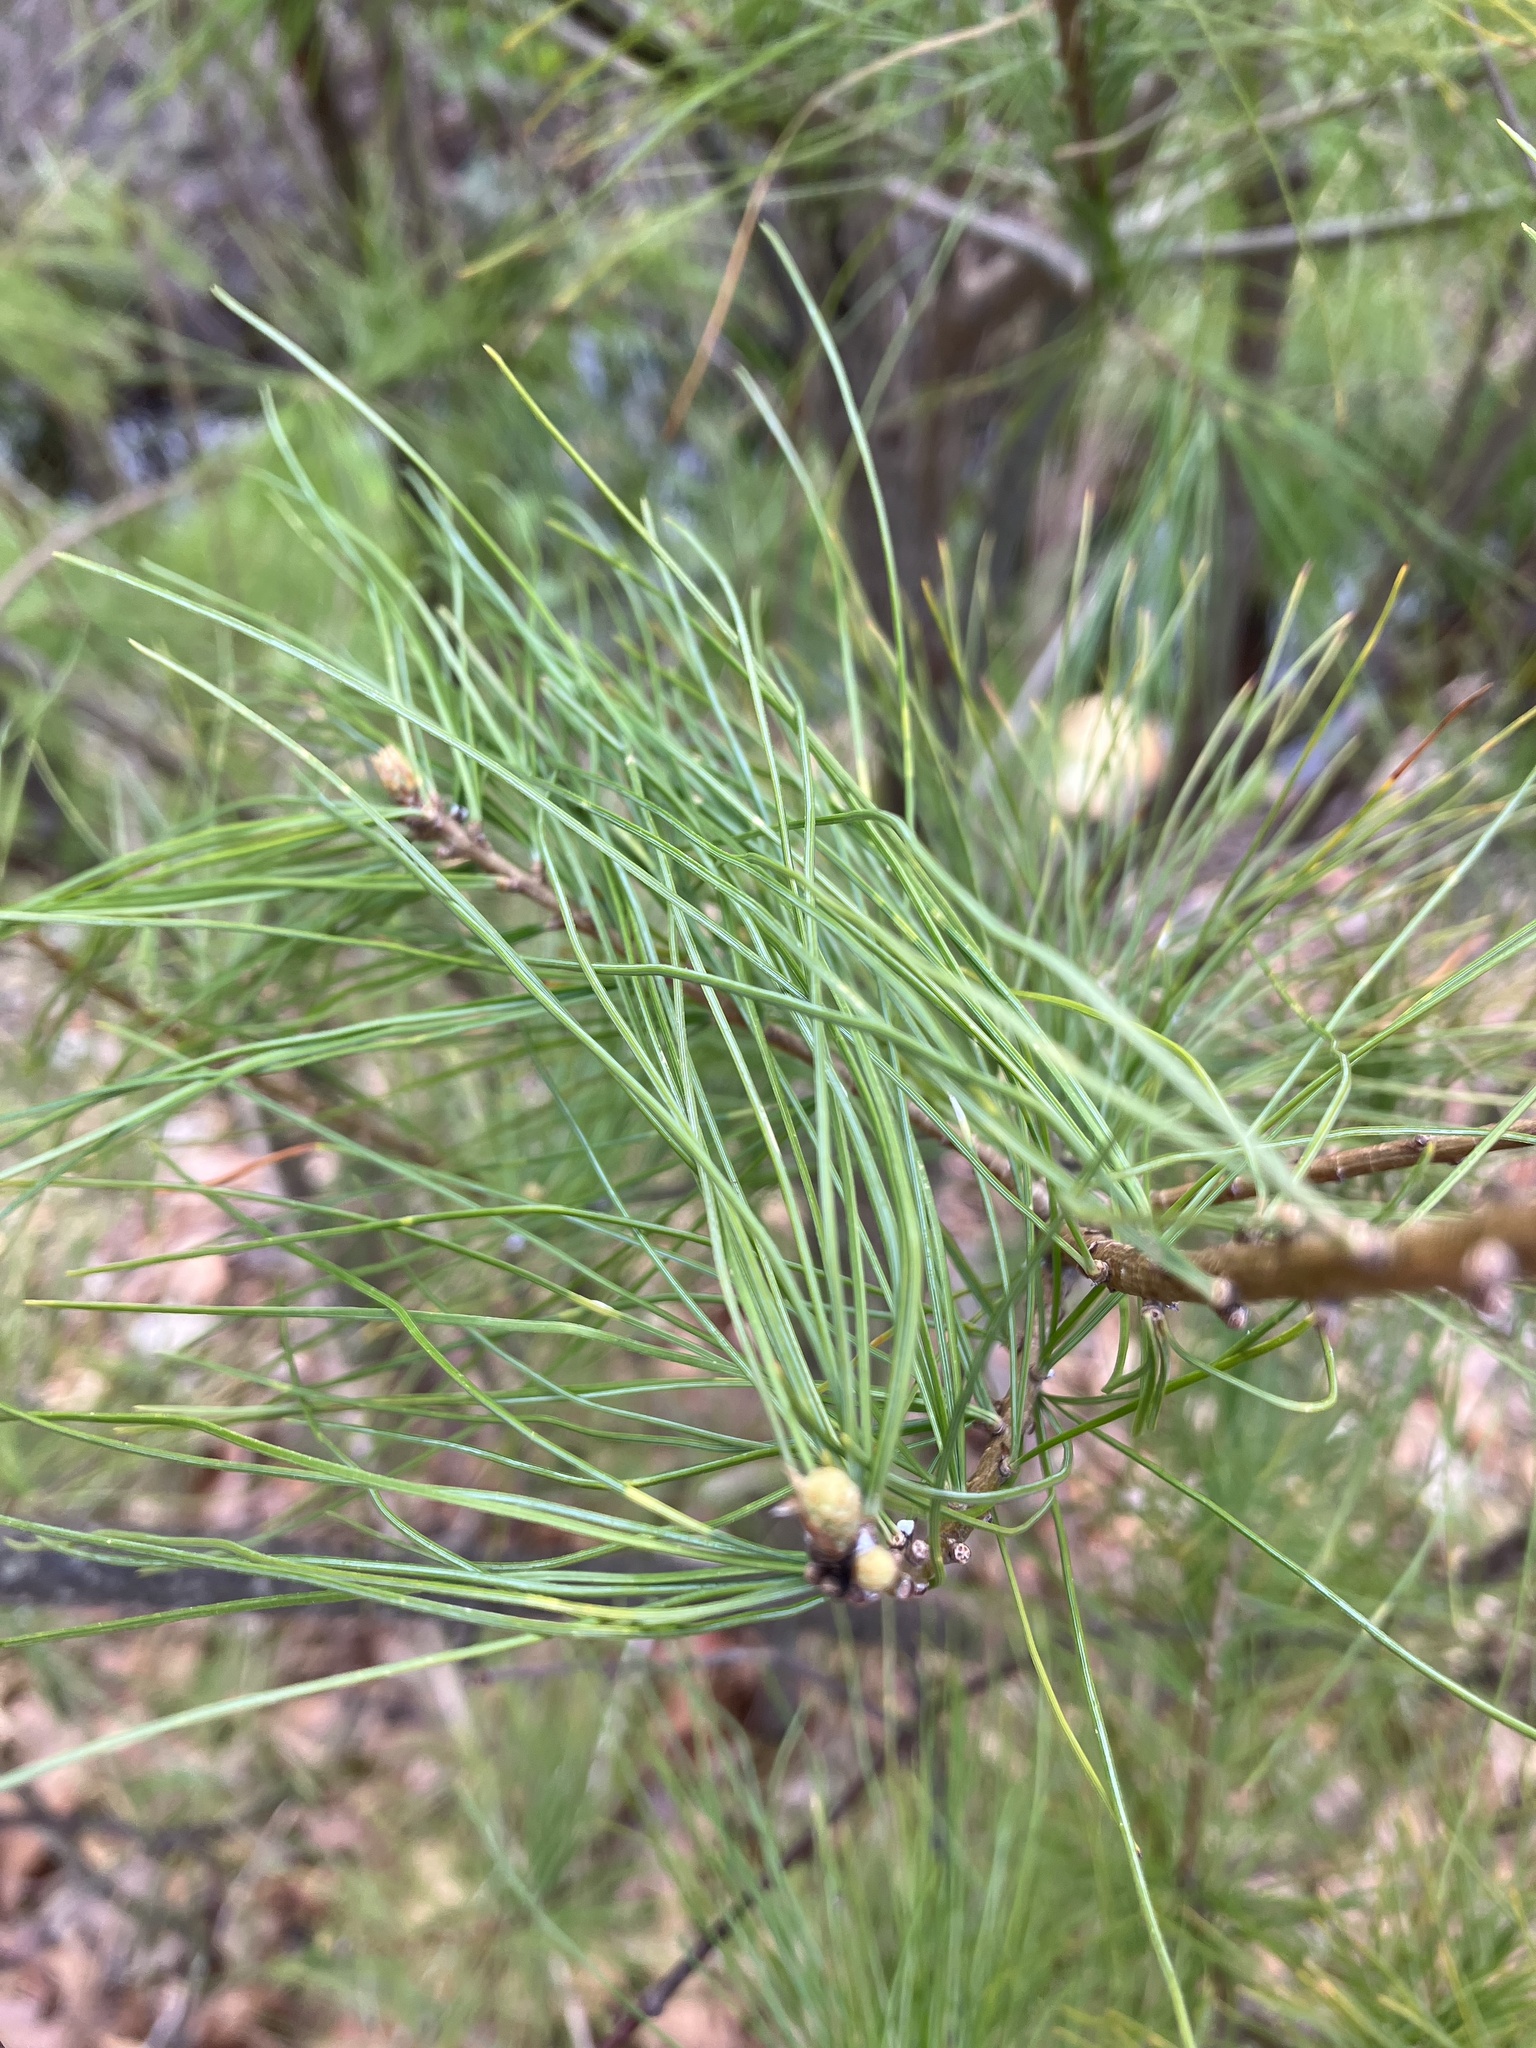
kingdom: Plantae
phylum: Tracheophyta
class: Pinopsida
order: Pinales
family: Pinaceae
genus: Pinus
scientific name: Pinus strobus
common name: Weymouth pine
